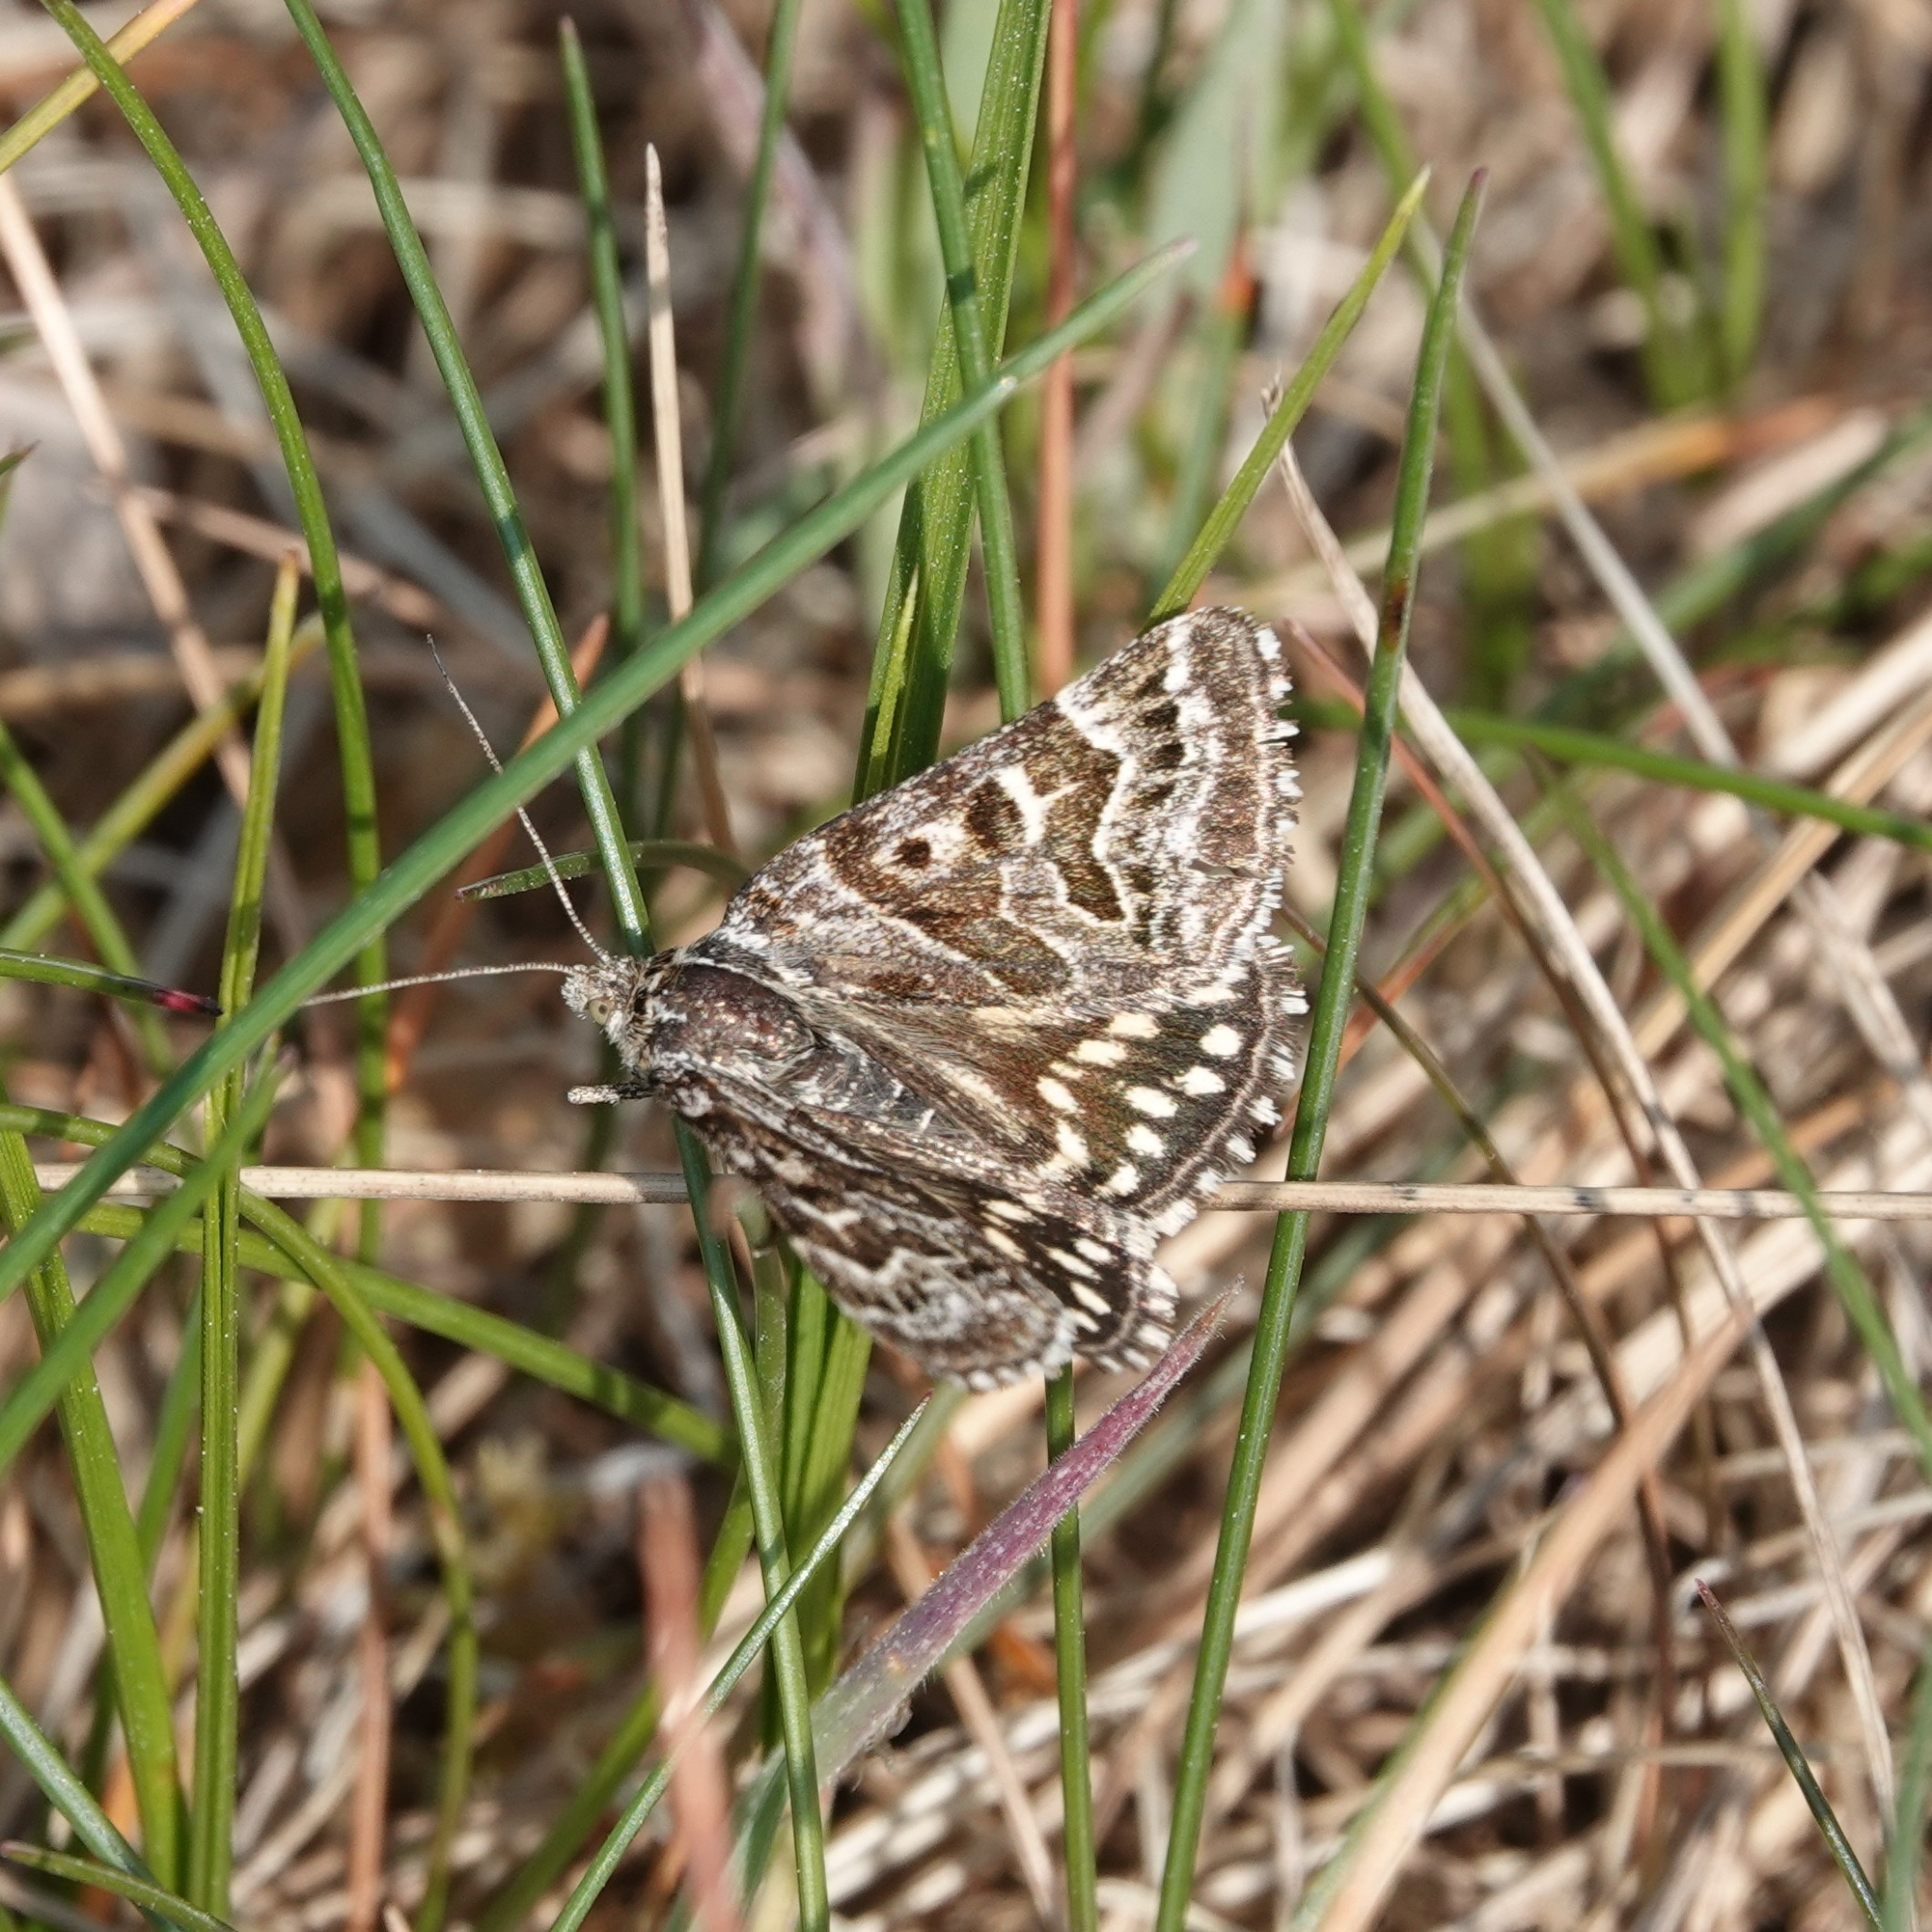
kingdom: Animalia
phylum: Arthropoda
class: Insecta
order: Lepidoptera
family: Erebidae
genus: Callistege
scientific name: Callistege mi
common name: Mother shipton
